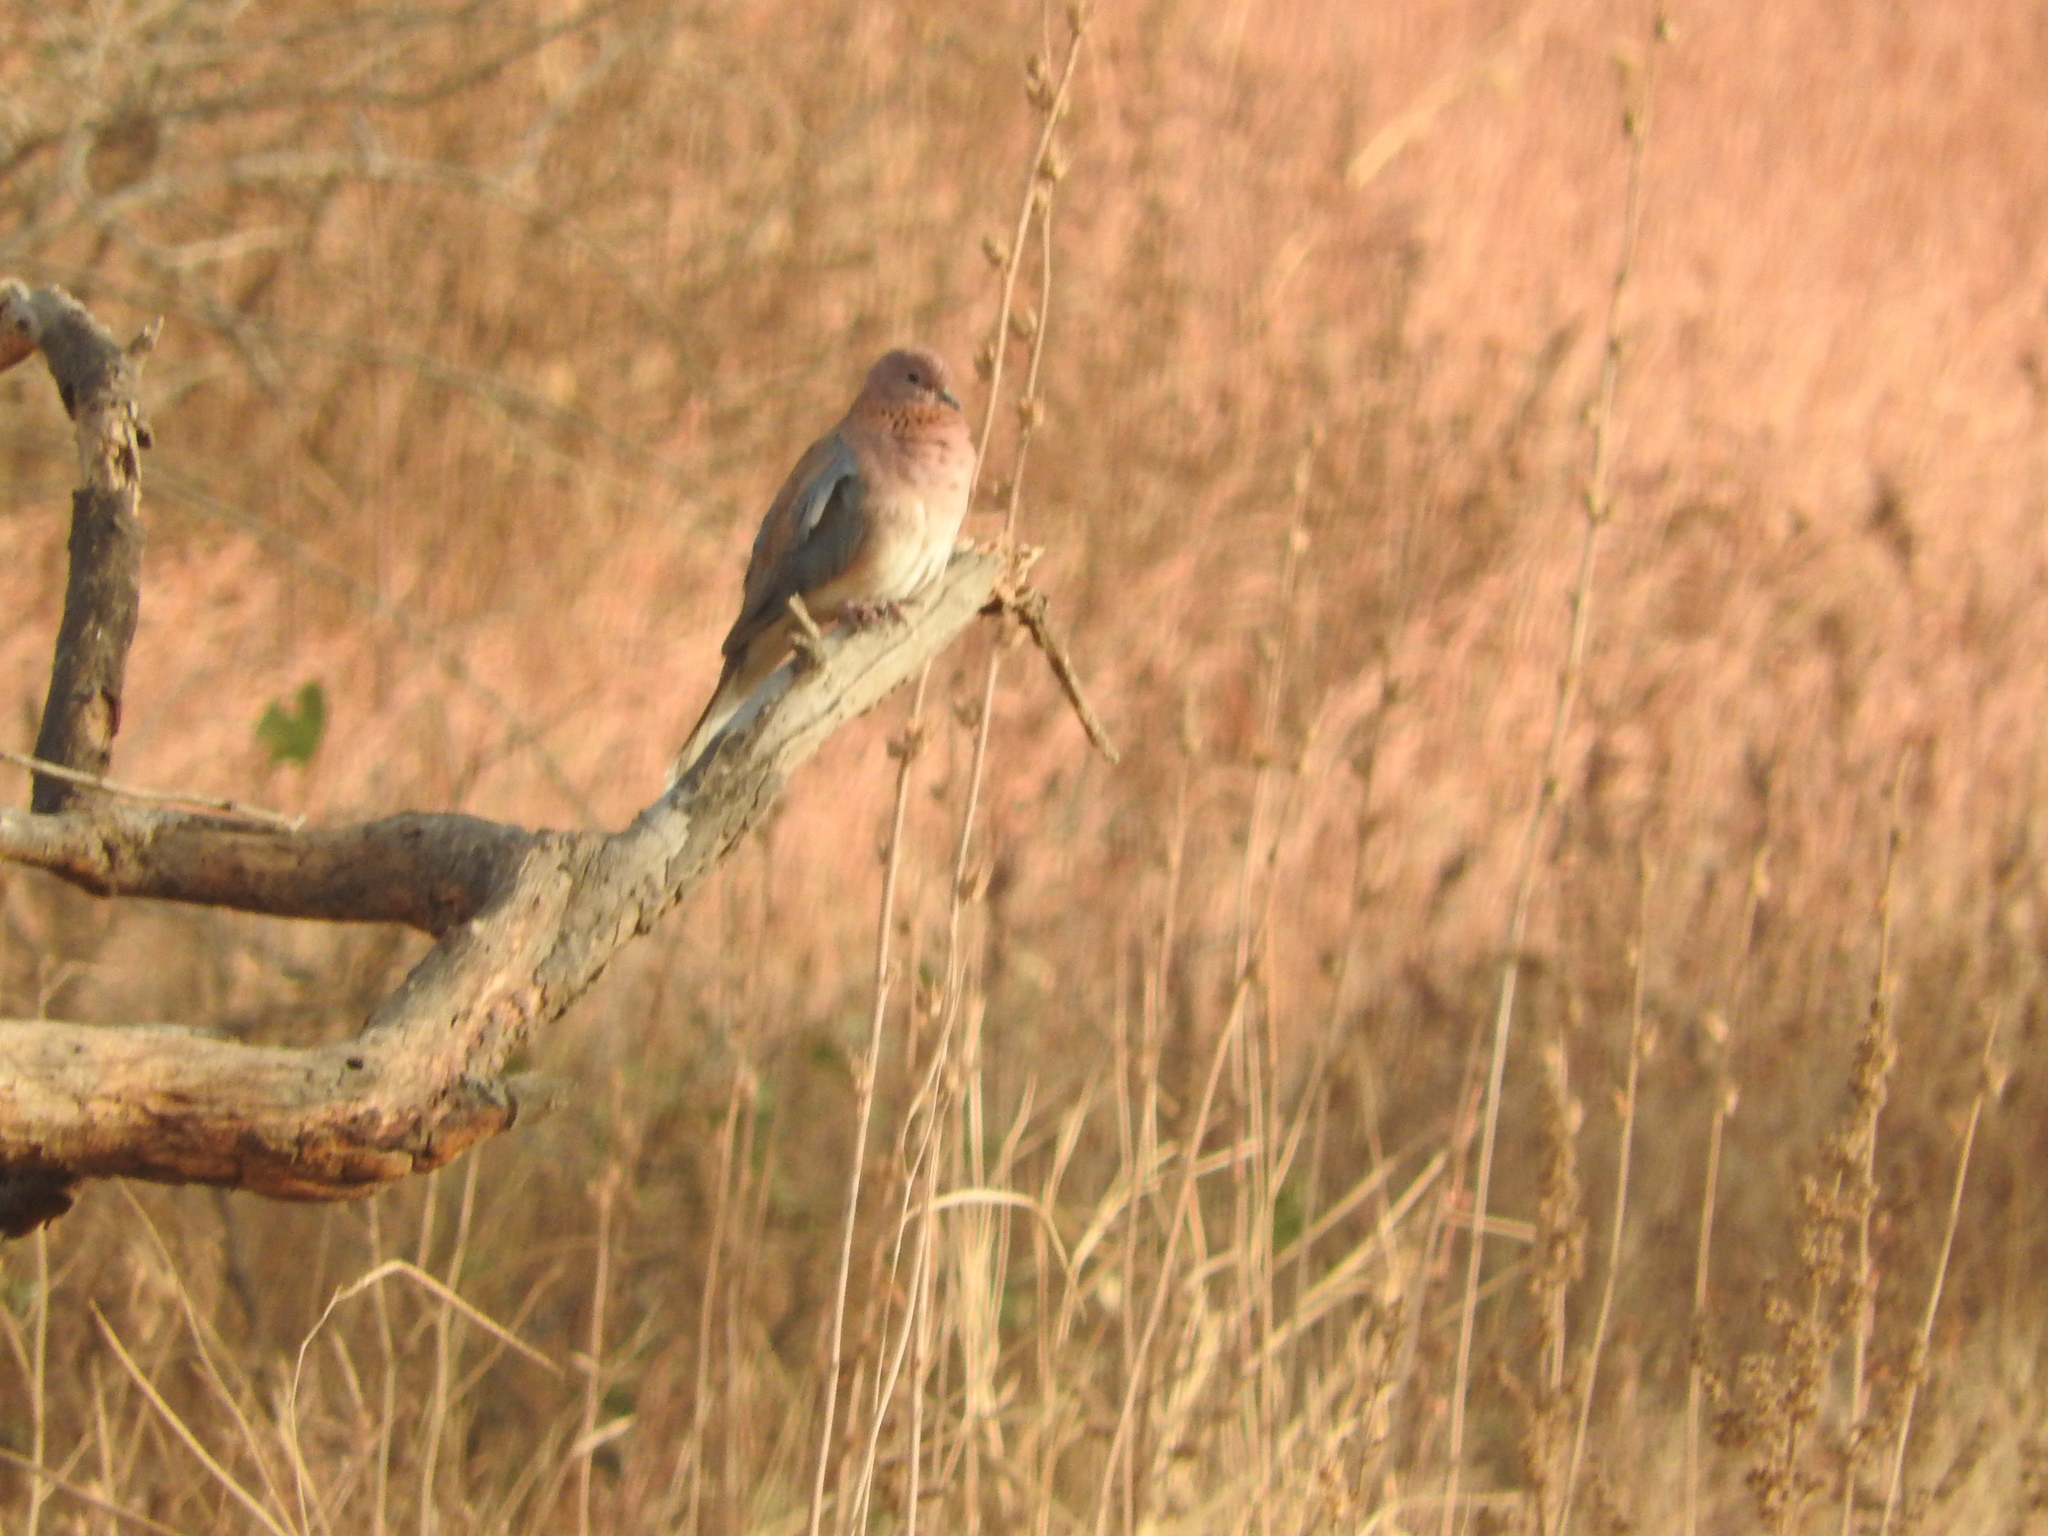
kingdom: Animalia
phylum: Chordata
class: Aves
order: Columbiformes
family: Columbidae
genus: Spilopelia
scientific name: Spilopelia senegalensis
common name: Laughing dove
